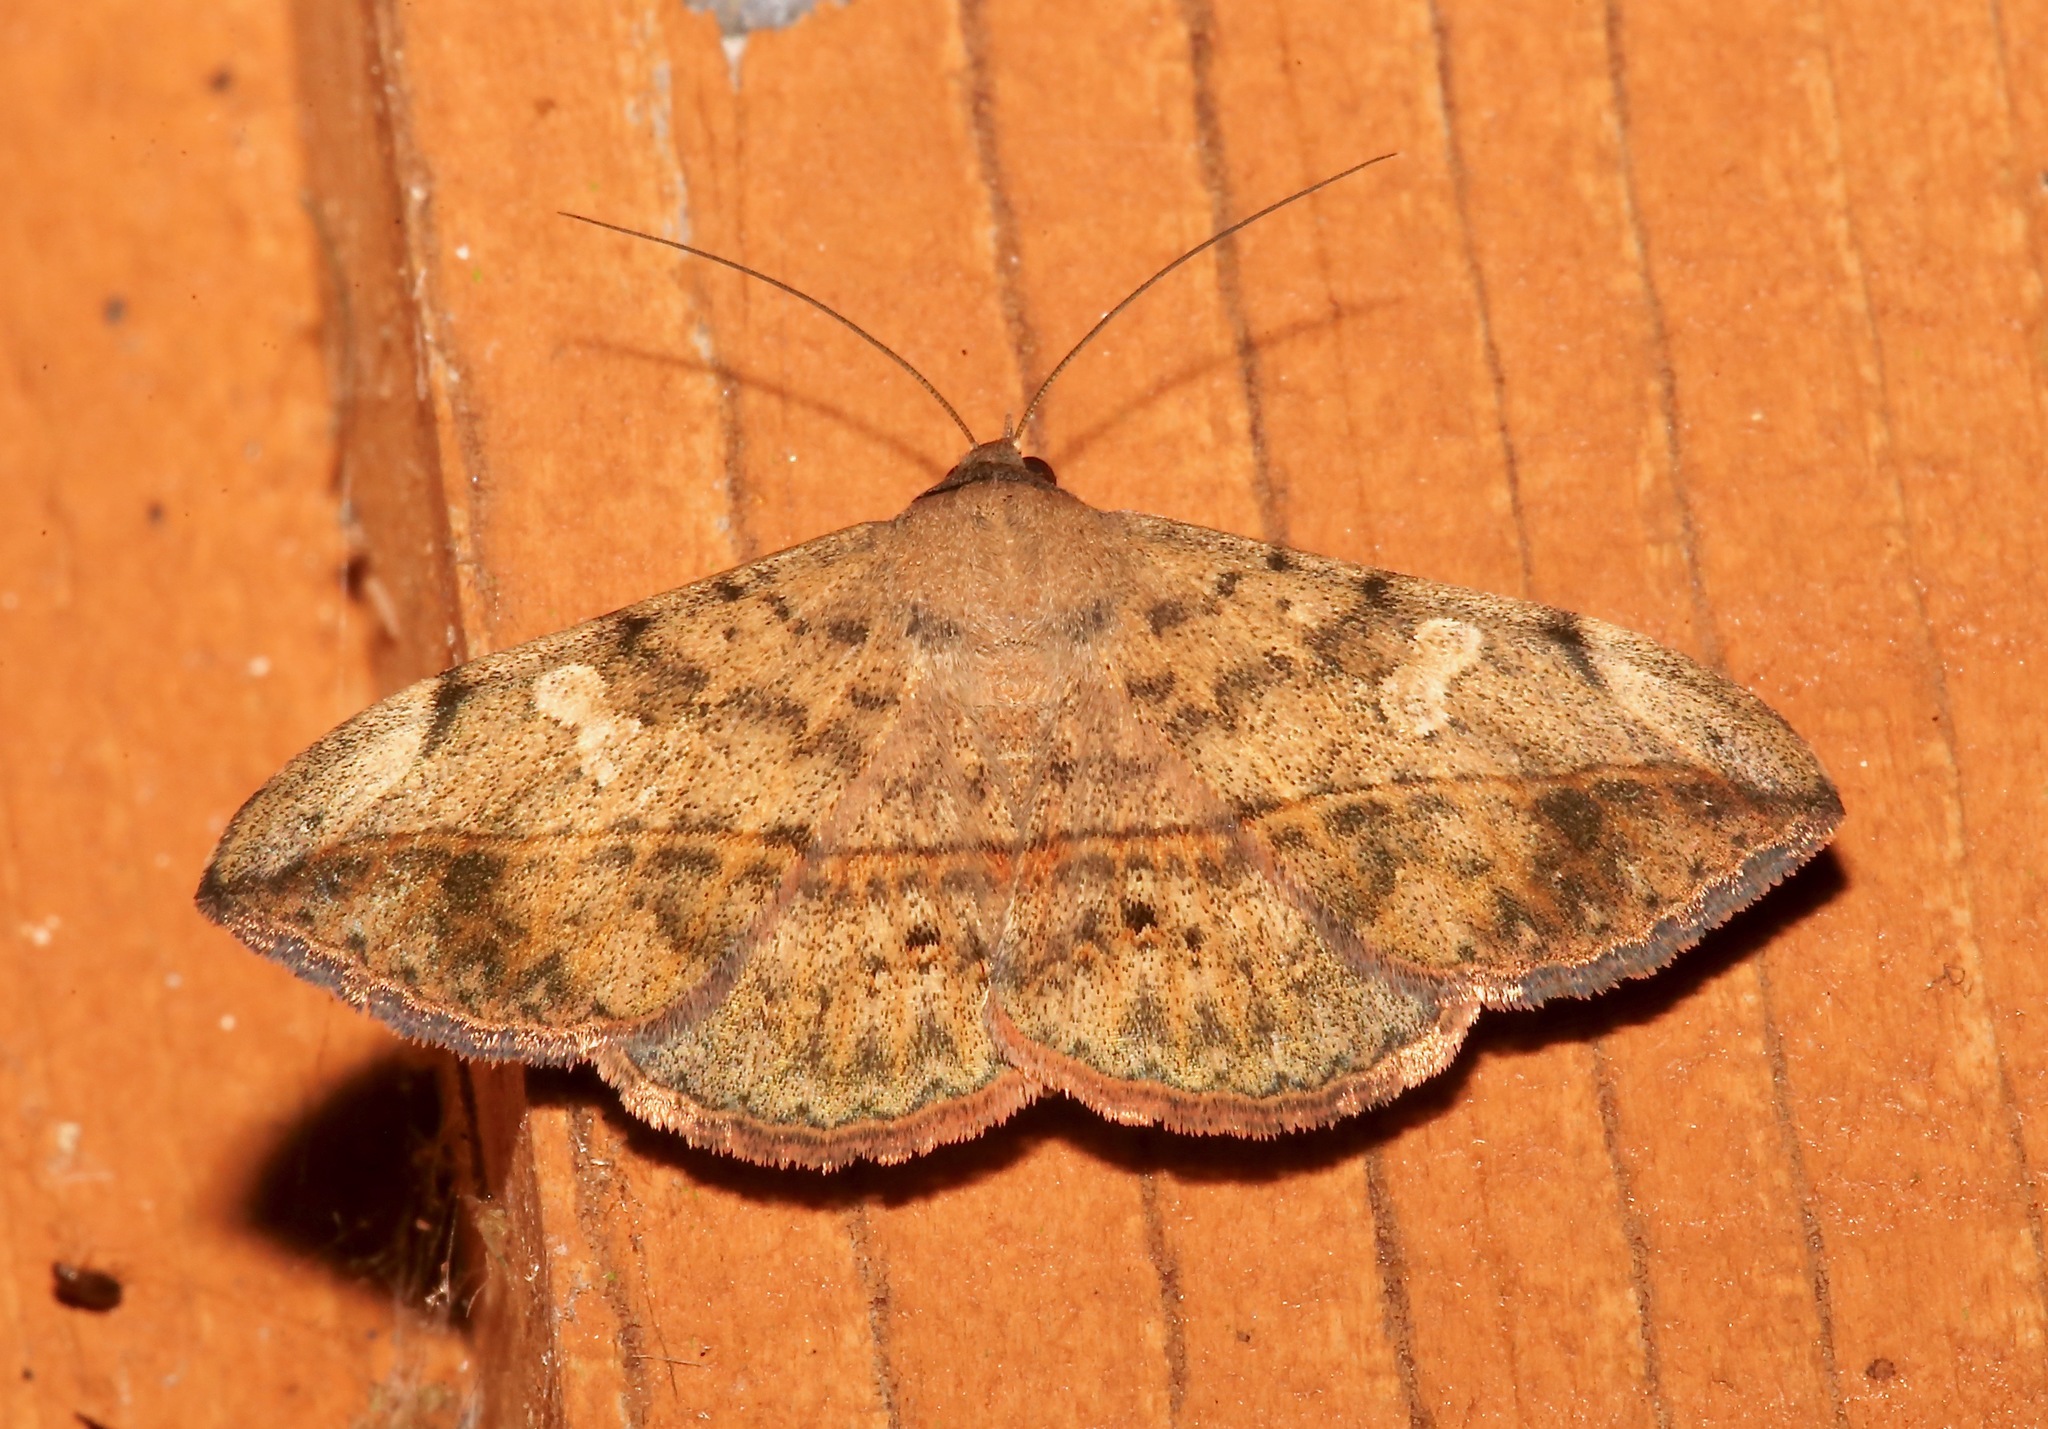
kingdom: Animalia
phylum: Arthropoda
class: Insecta
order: Lepidoptera
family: Erebidae
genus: Anticarsia
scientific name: Anticarsia gemmatalis
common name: Cutworm moth
